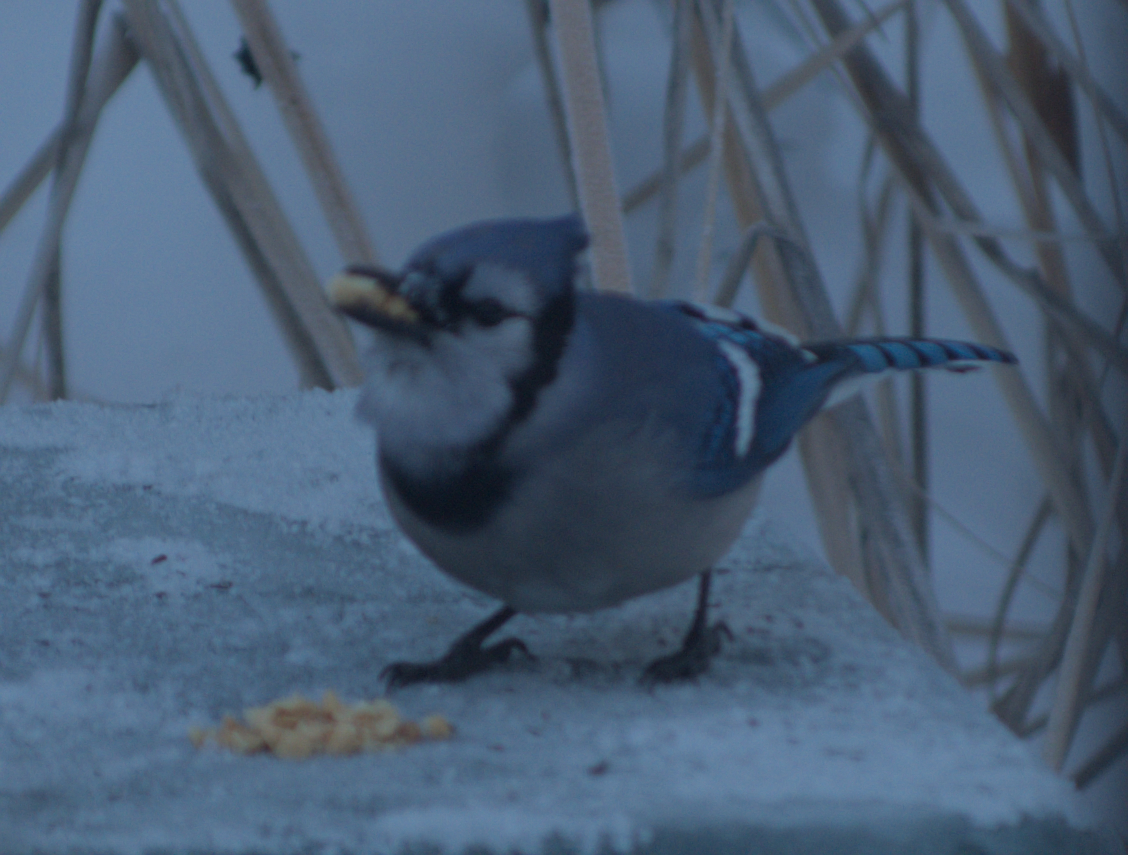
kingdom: Animalia
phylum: Chordata
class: Aves
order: Passeriformes
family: Corvidae
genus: Cyanocitta
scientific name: Cyanocitta cristata
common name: Blue jay
